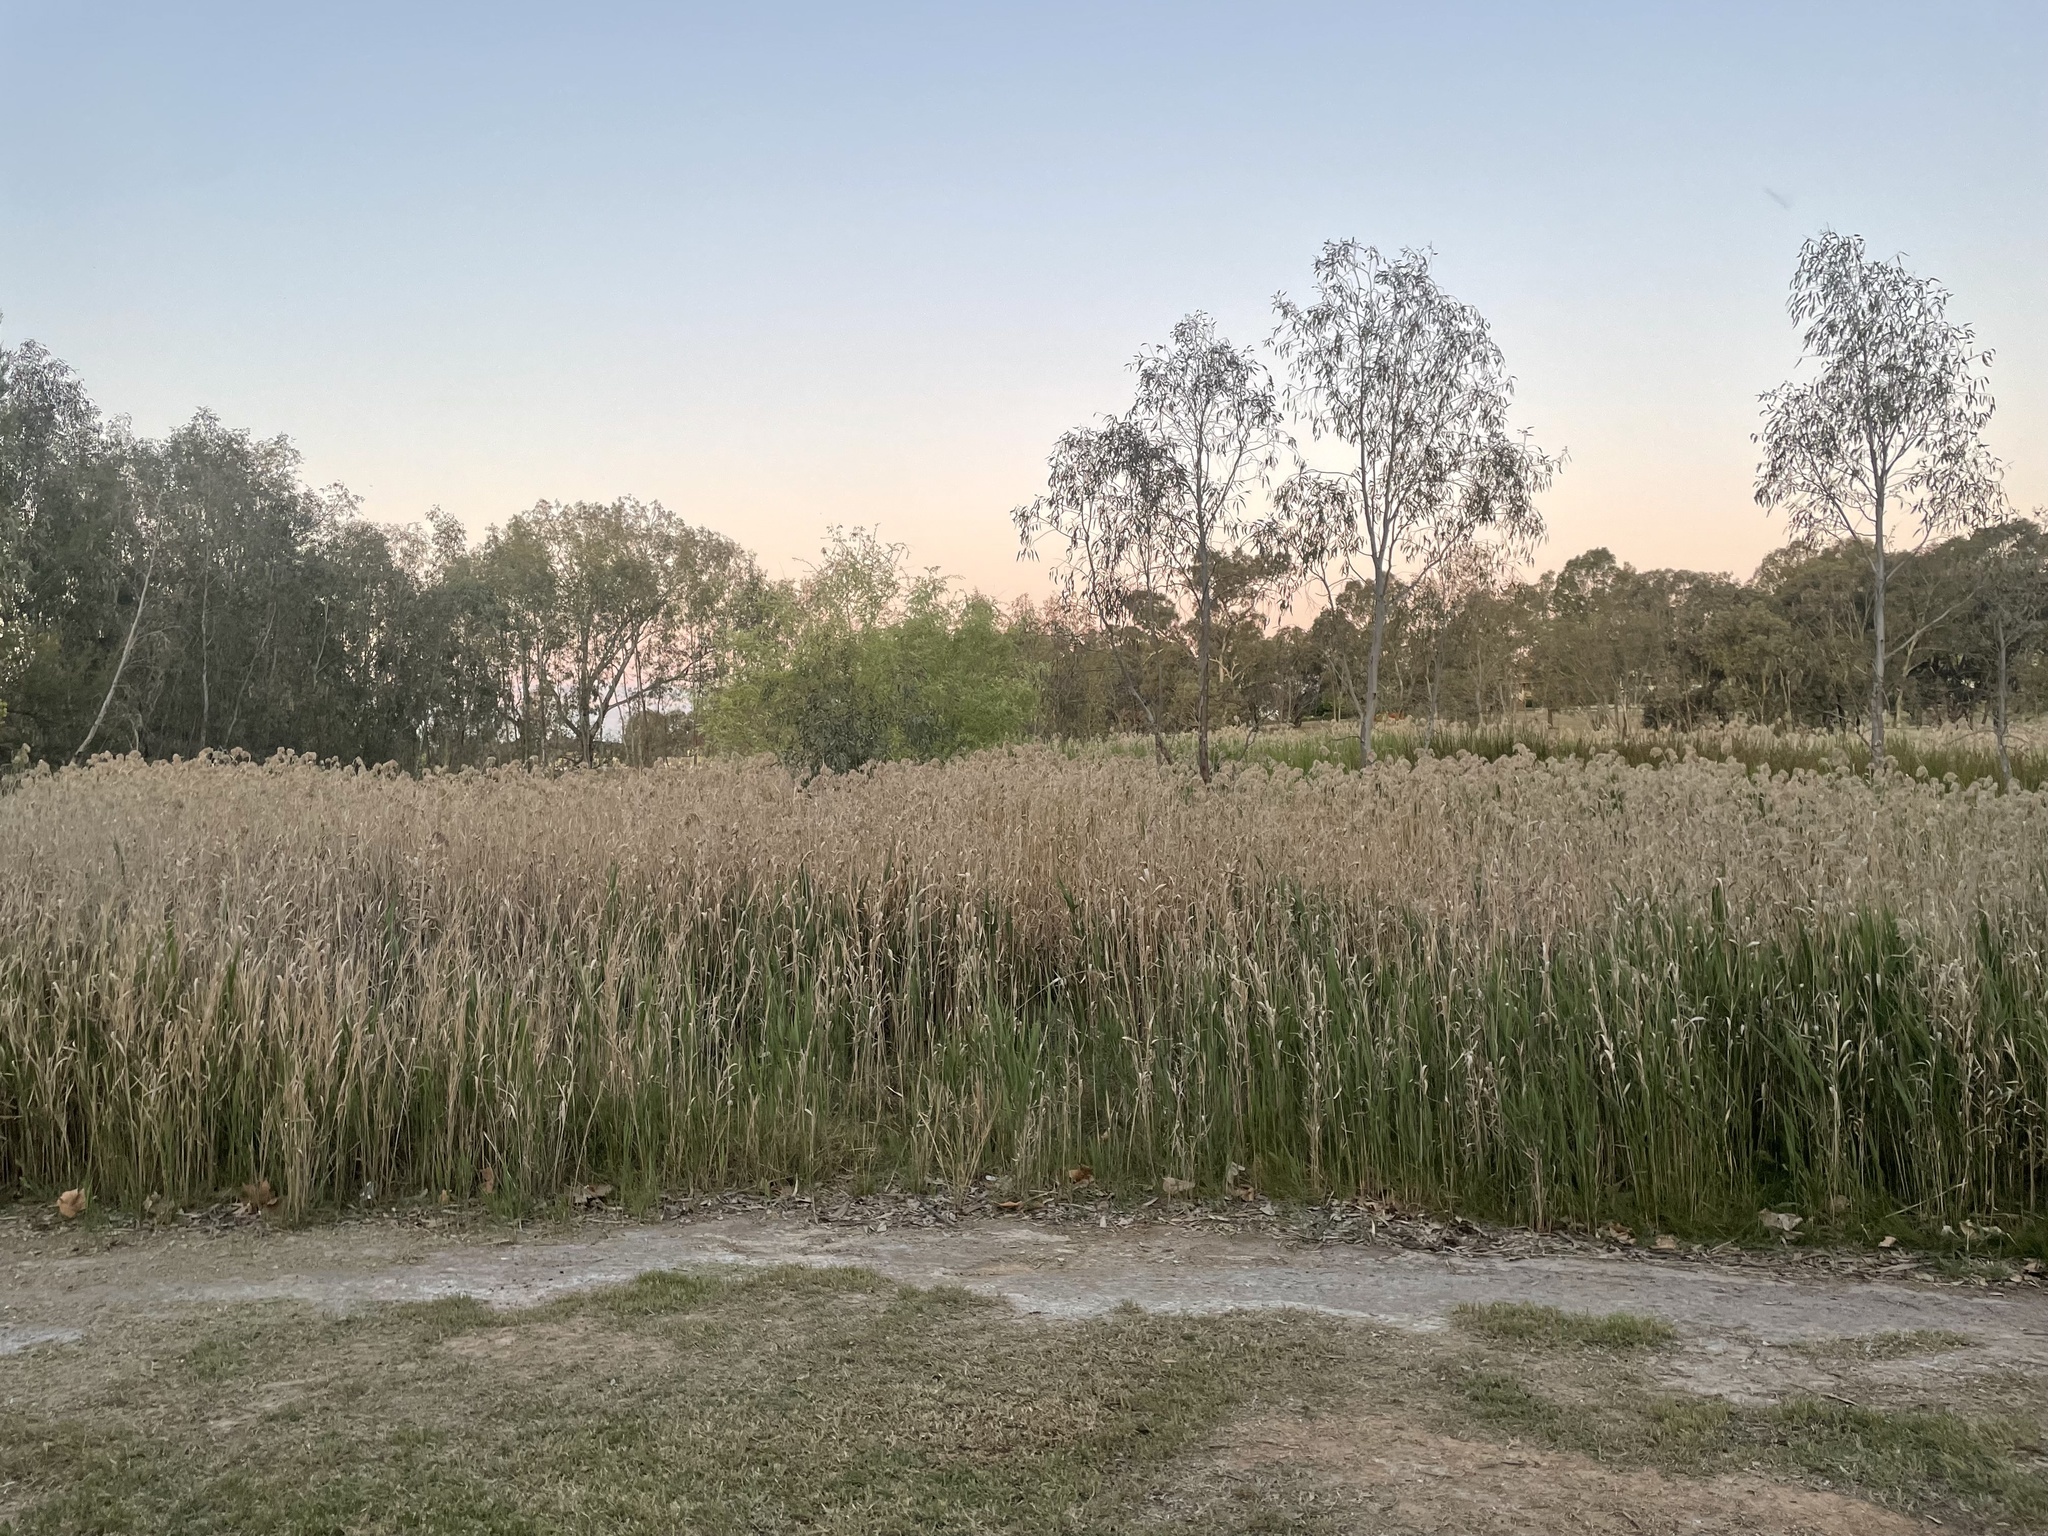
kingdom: Plantae
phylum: Tracheophyta
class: Liliopsida
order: Poales
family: Poaceae
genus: Phragmites
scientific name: Phragmites australis
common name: Common reed
